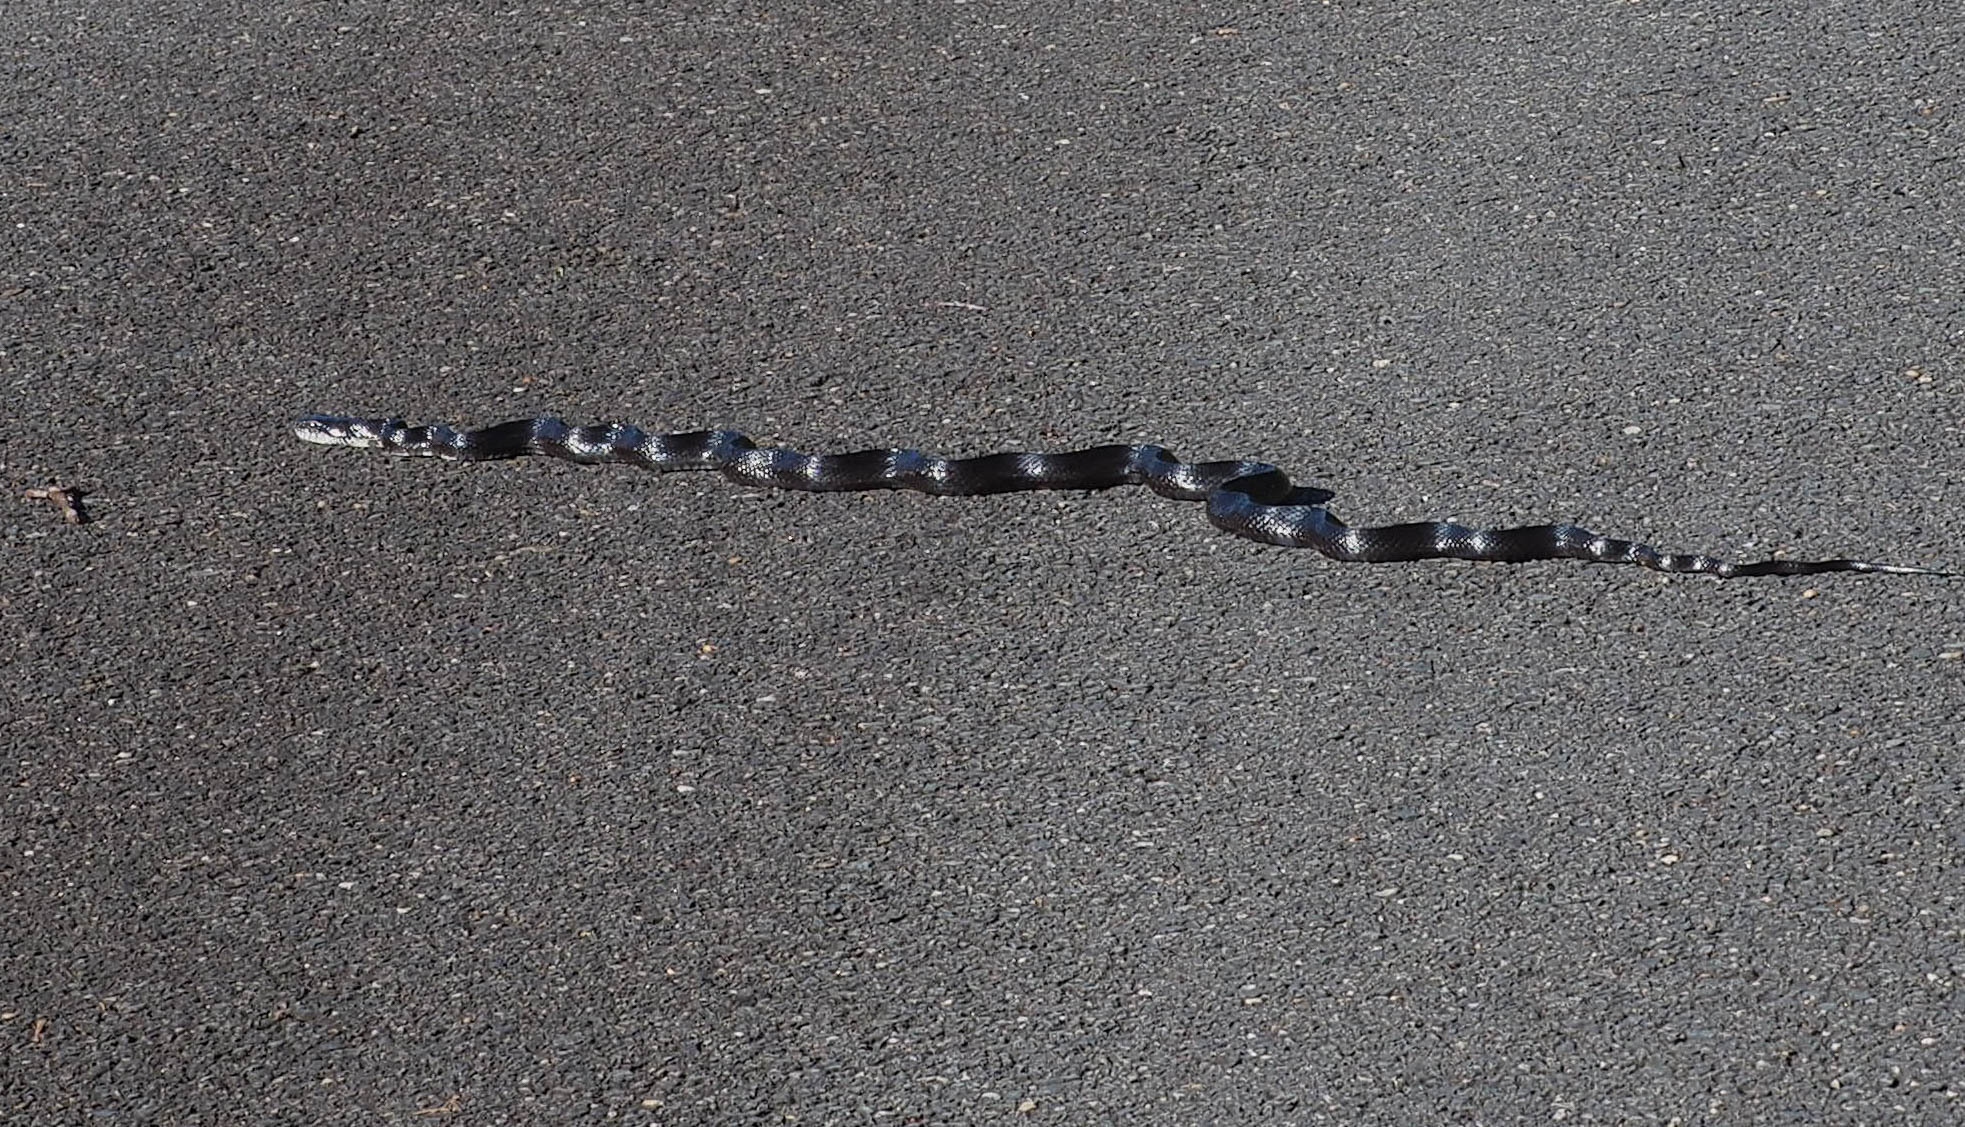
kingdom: Animalia
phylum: Chordata
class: Squamata
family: Colubridae
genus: Pantherophis
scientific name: Pantherophis
